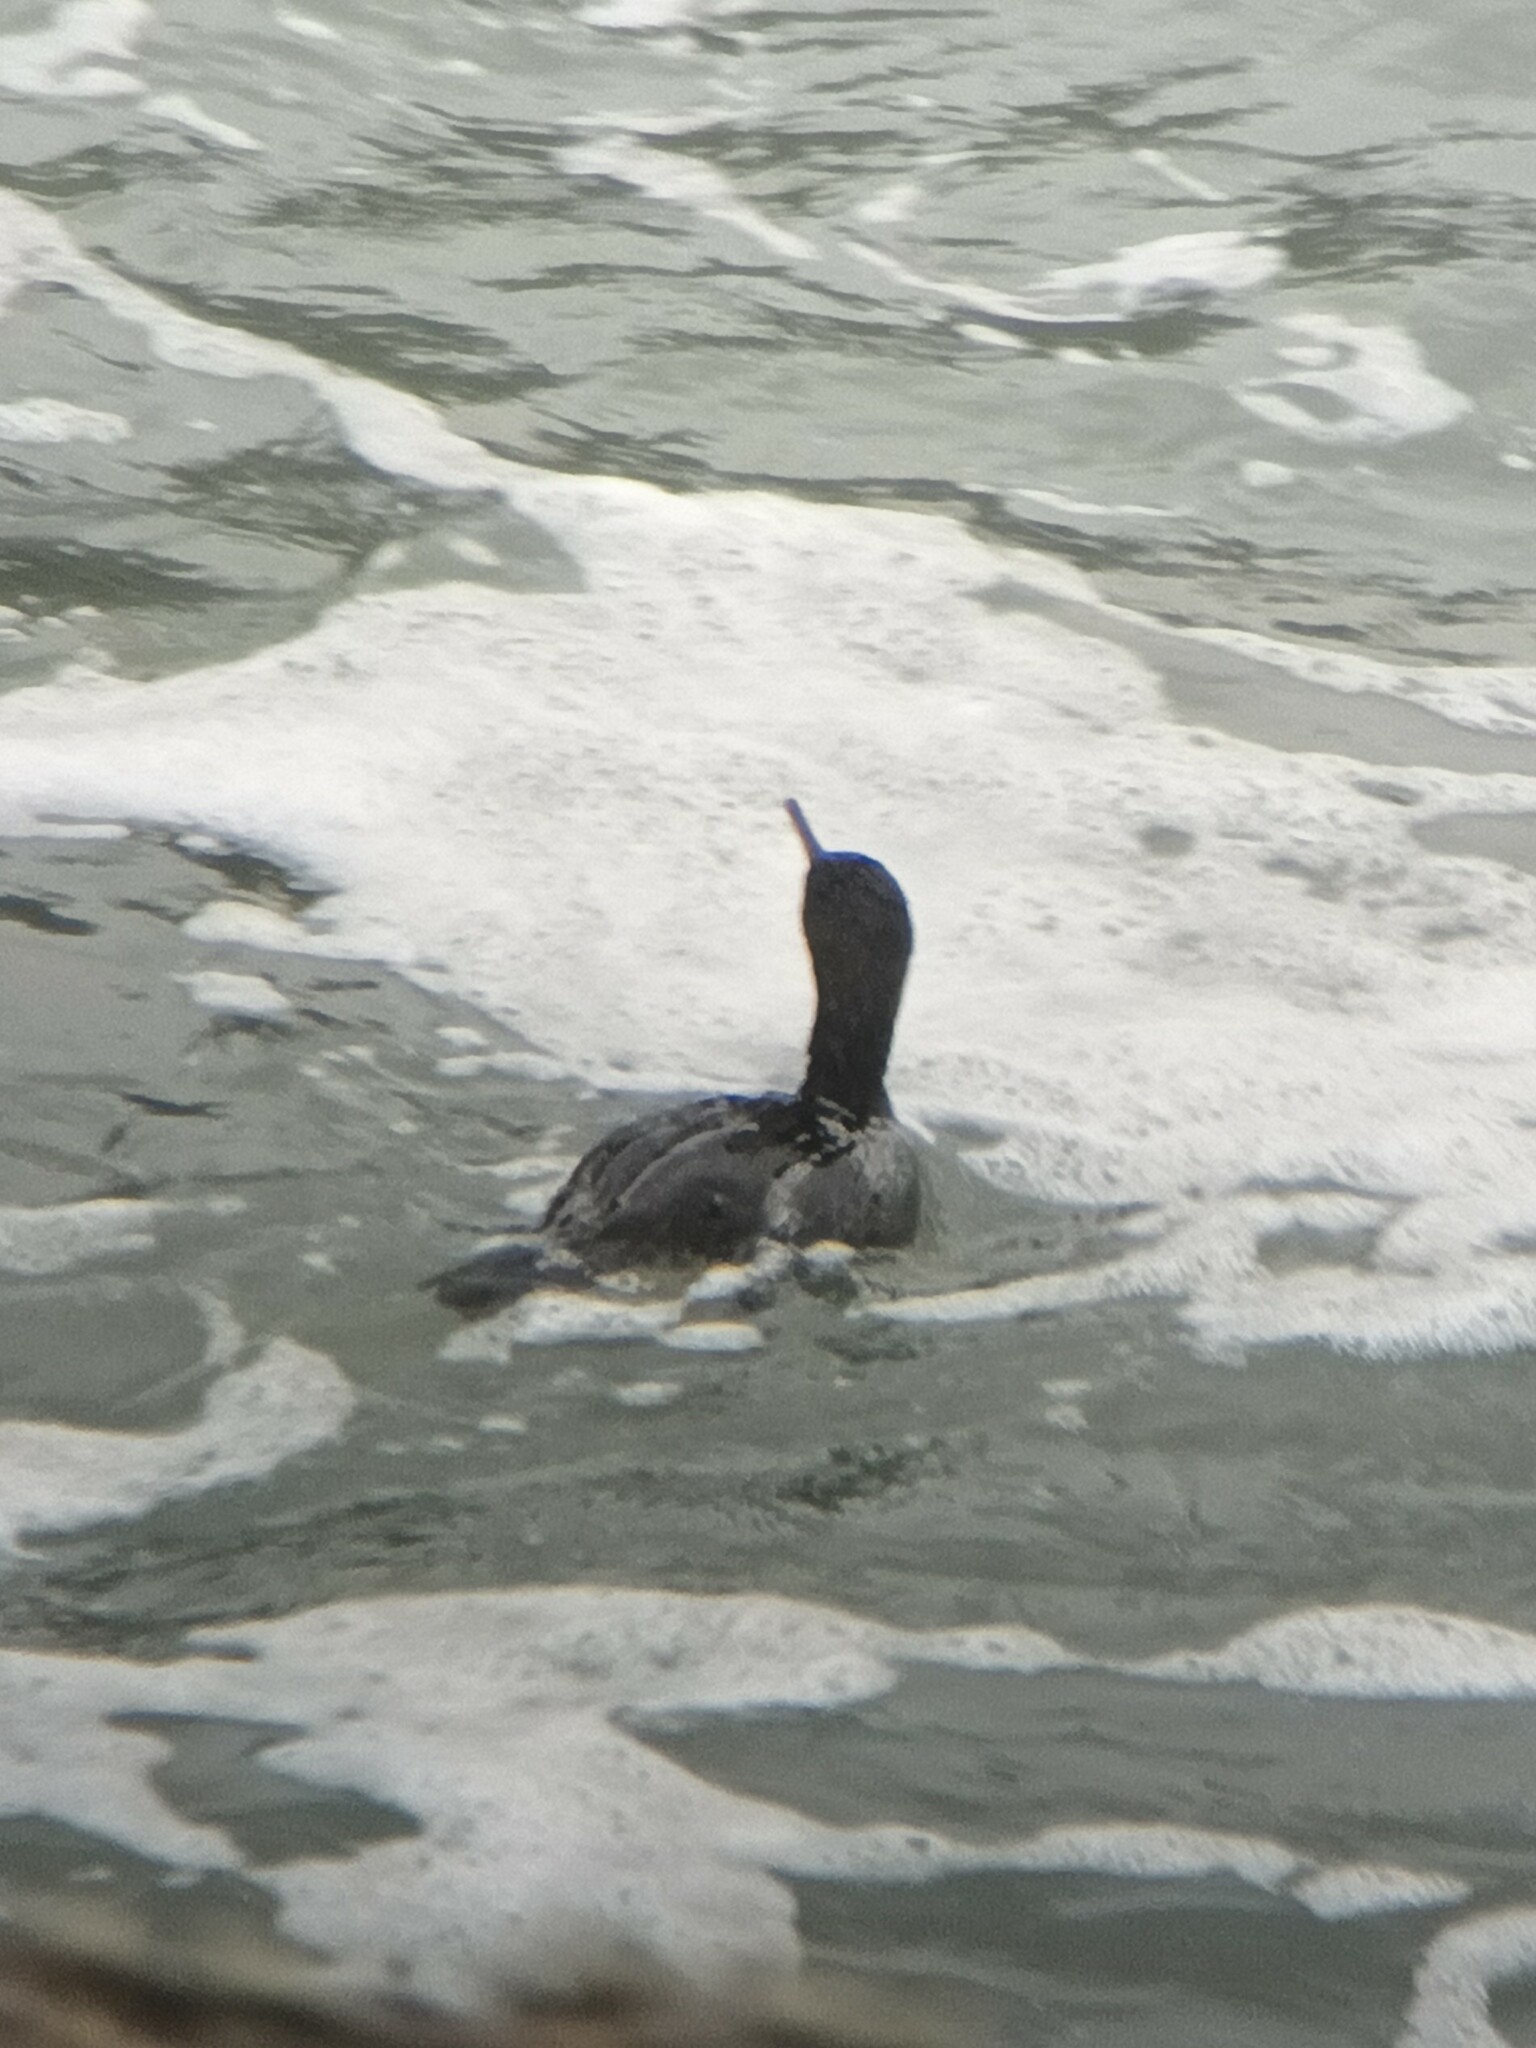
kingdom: Animalia
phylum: Chordata
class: Aves
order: Suliformes
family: Phalacrocoracidae
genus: Phalacrocorax
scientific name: Phalacrocorax aristotelis
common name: European shag
